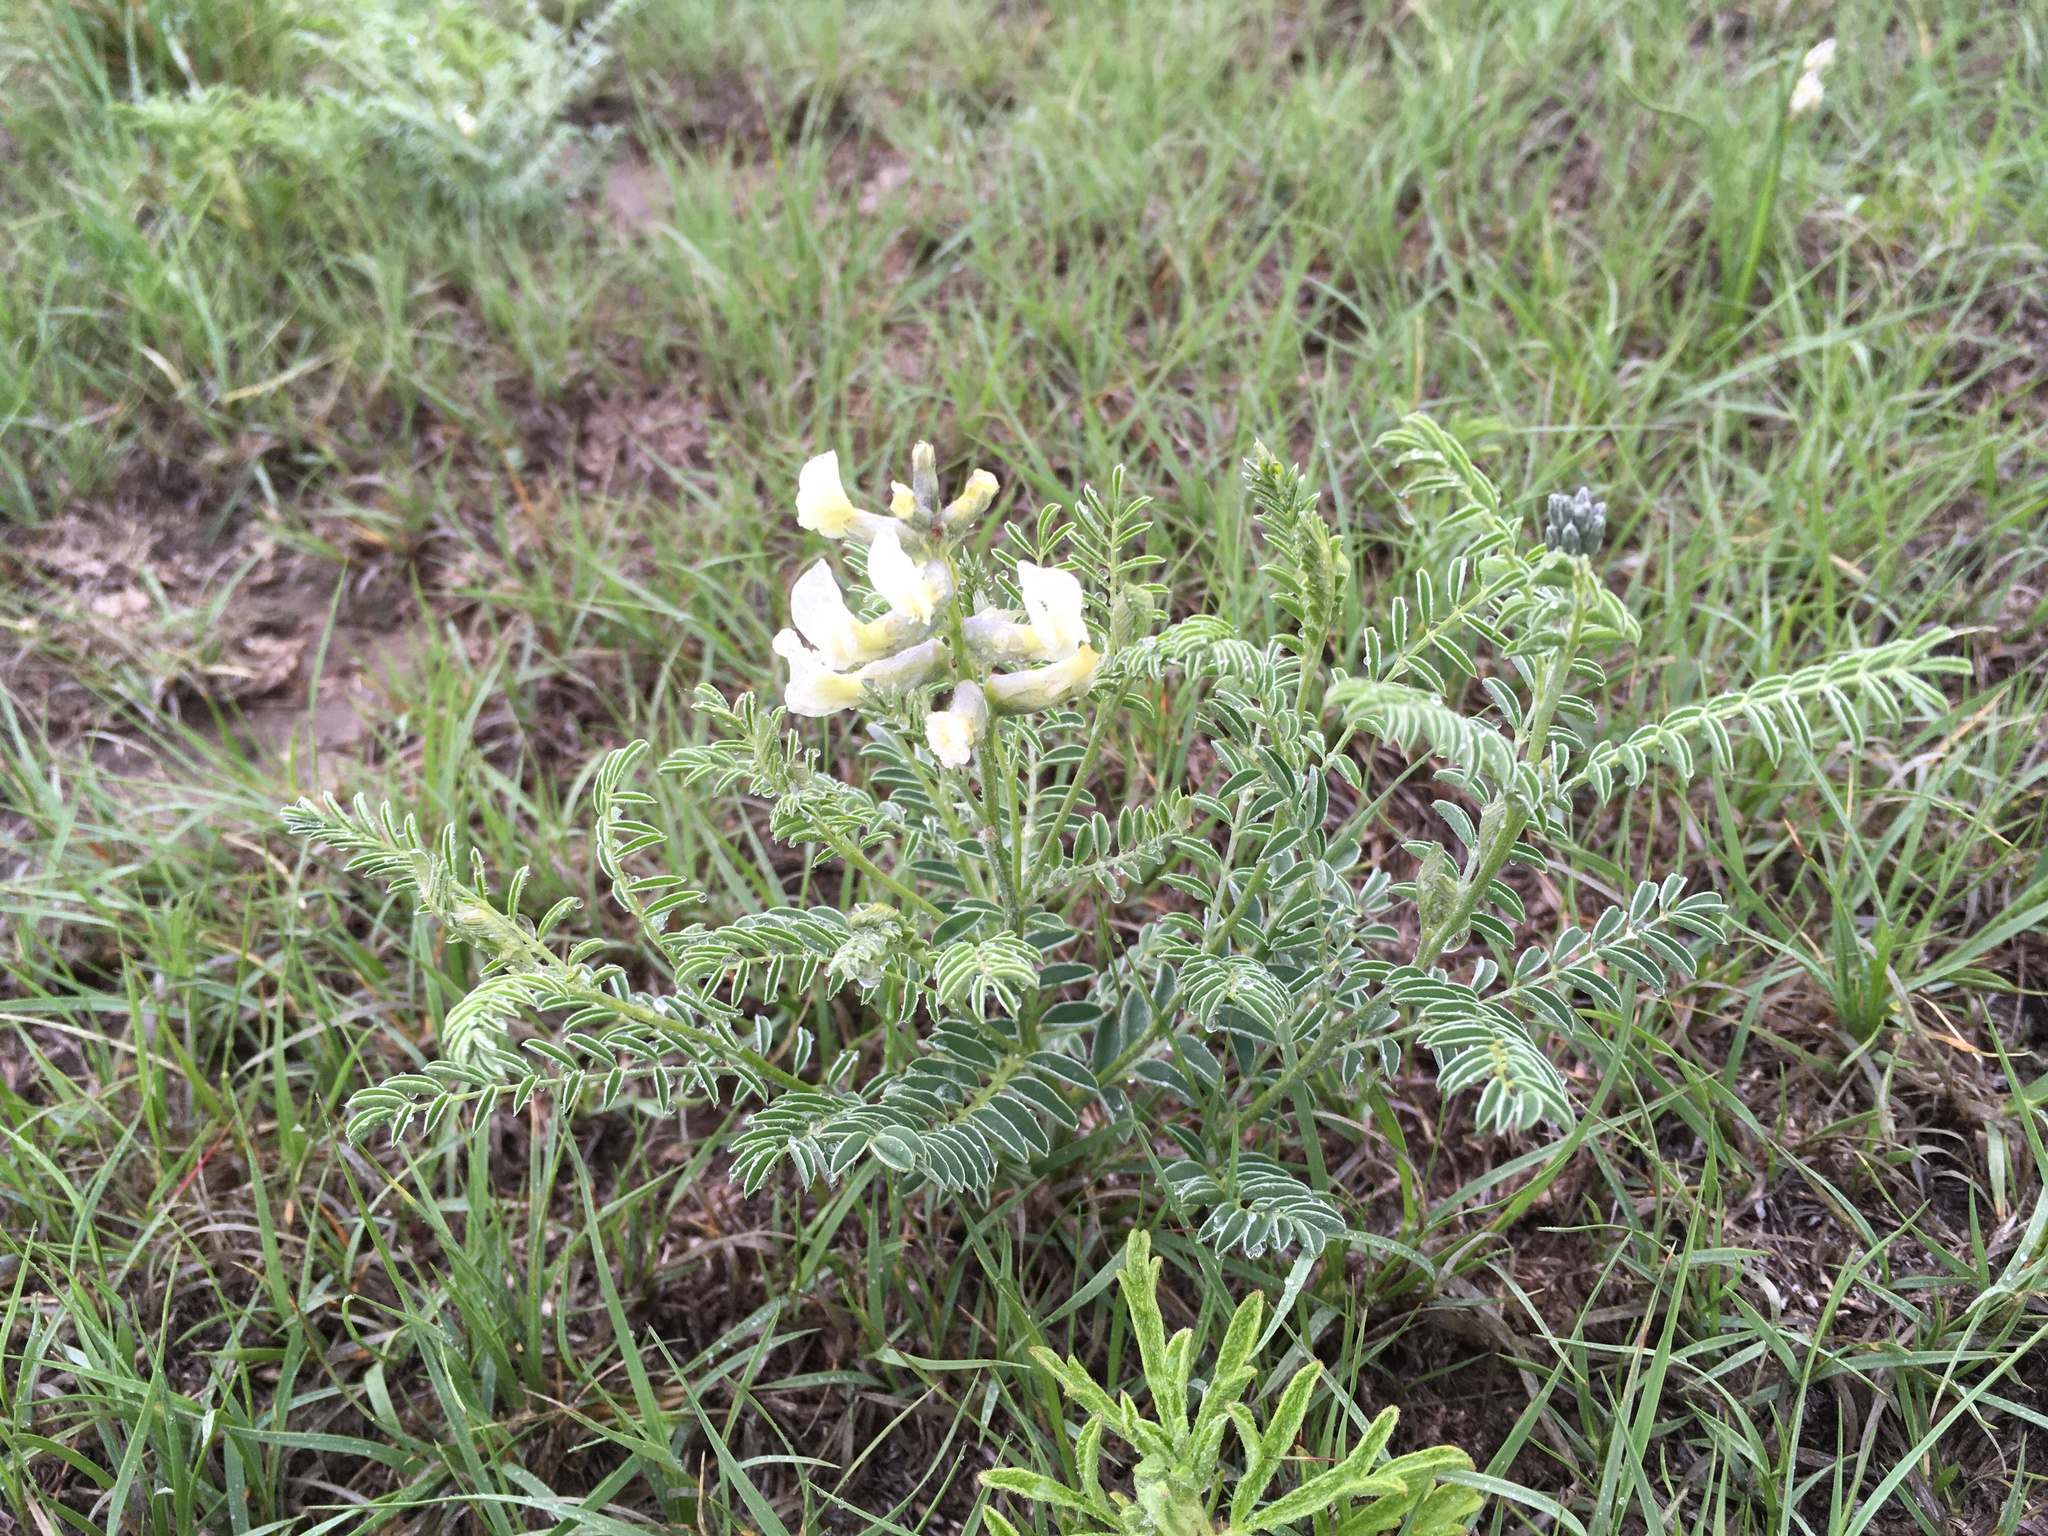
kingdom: Plantae
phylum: Tracheophyta
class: Magnoliopsida
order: Fabales
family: Fabaceae
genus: Sophora
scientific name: Sophora nuttalliana
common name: Silky sophora
